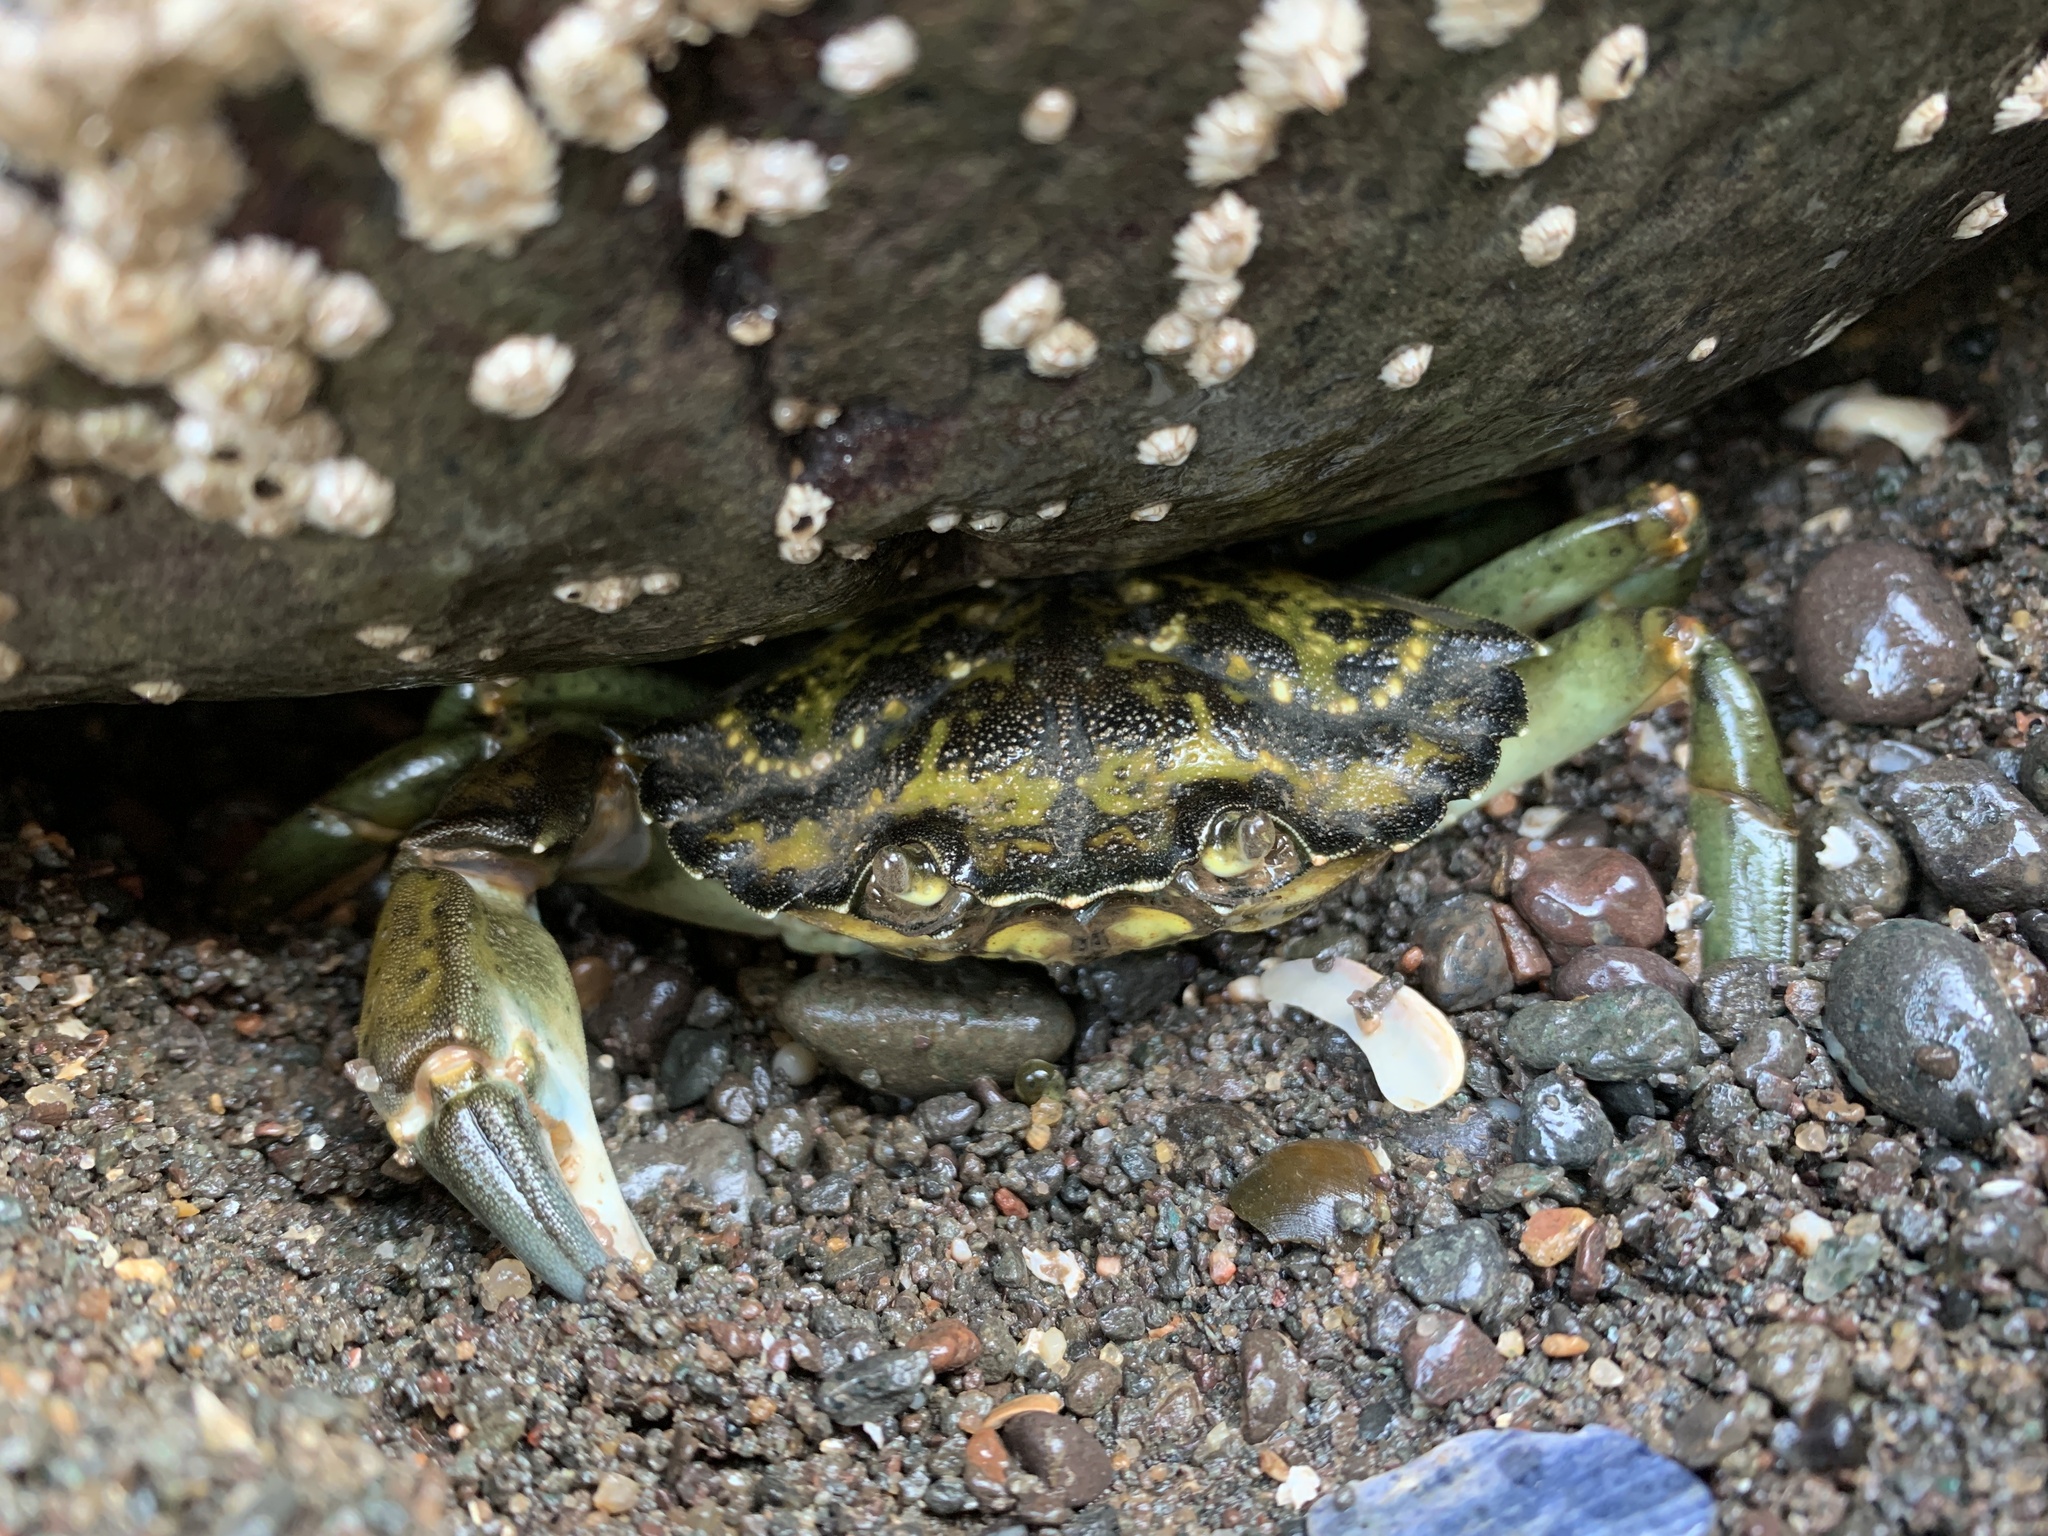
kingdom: Animalia
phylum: Arthropoda
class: Malacostraca
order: Decapoda
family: Carcinidae
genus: Carcinus
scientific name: Carcinus maenas
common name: European green crab
